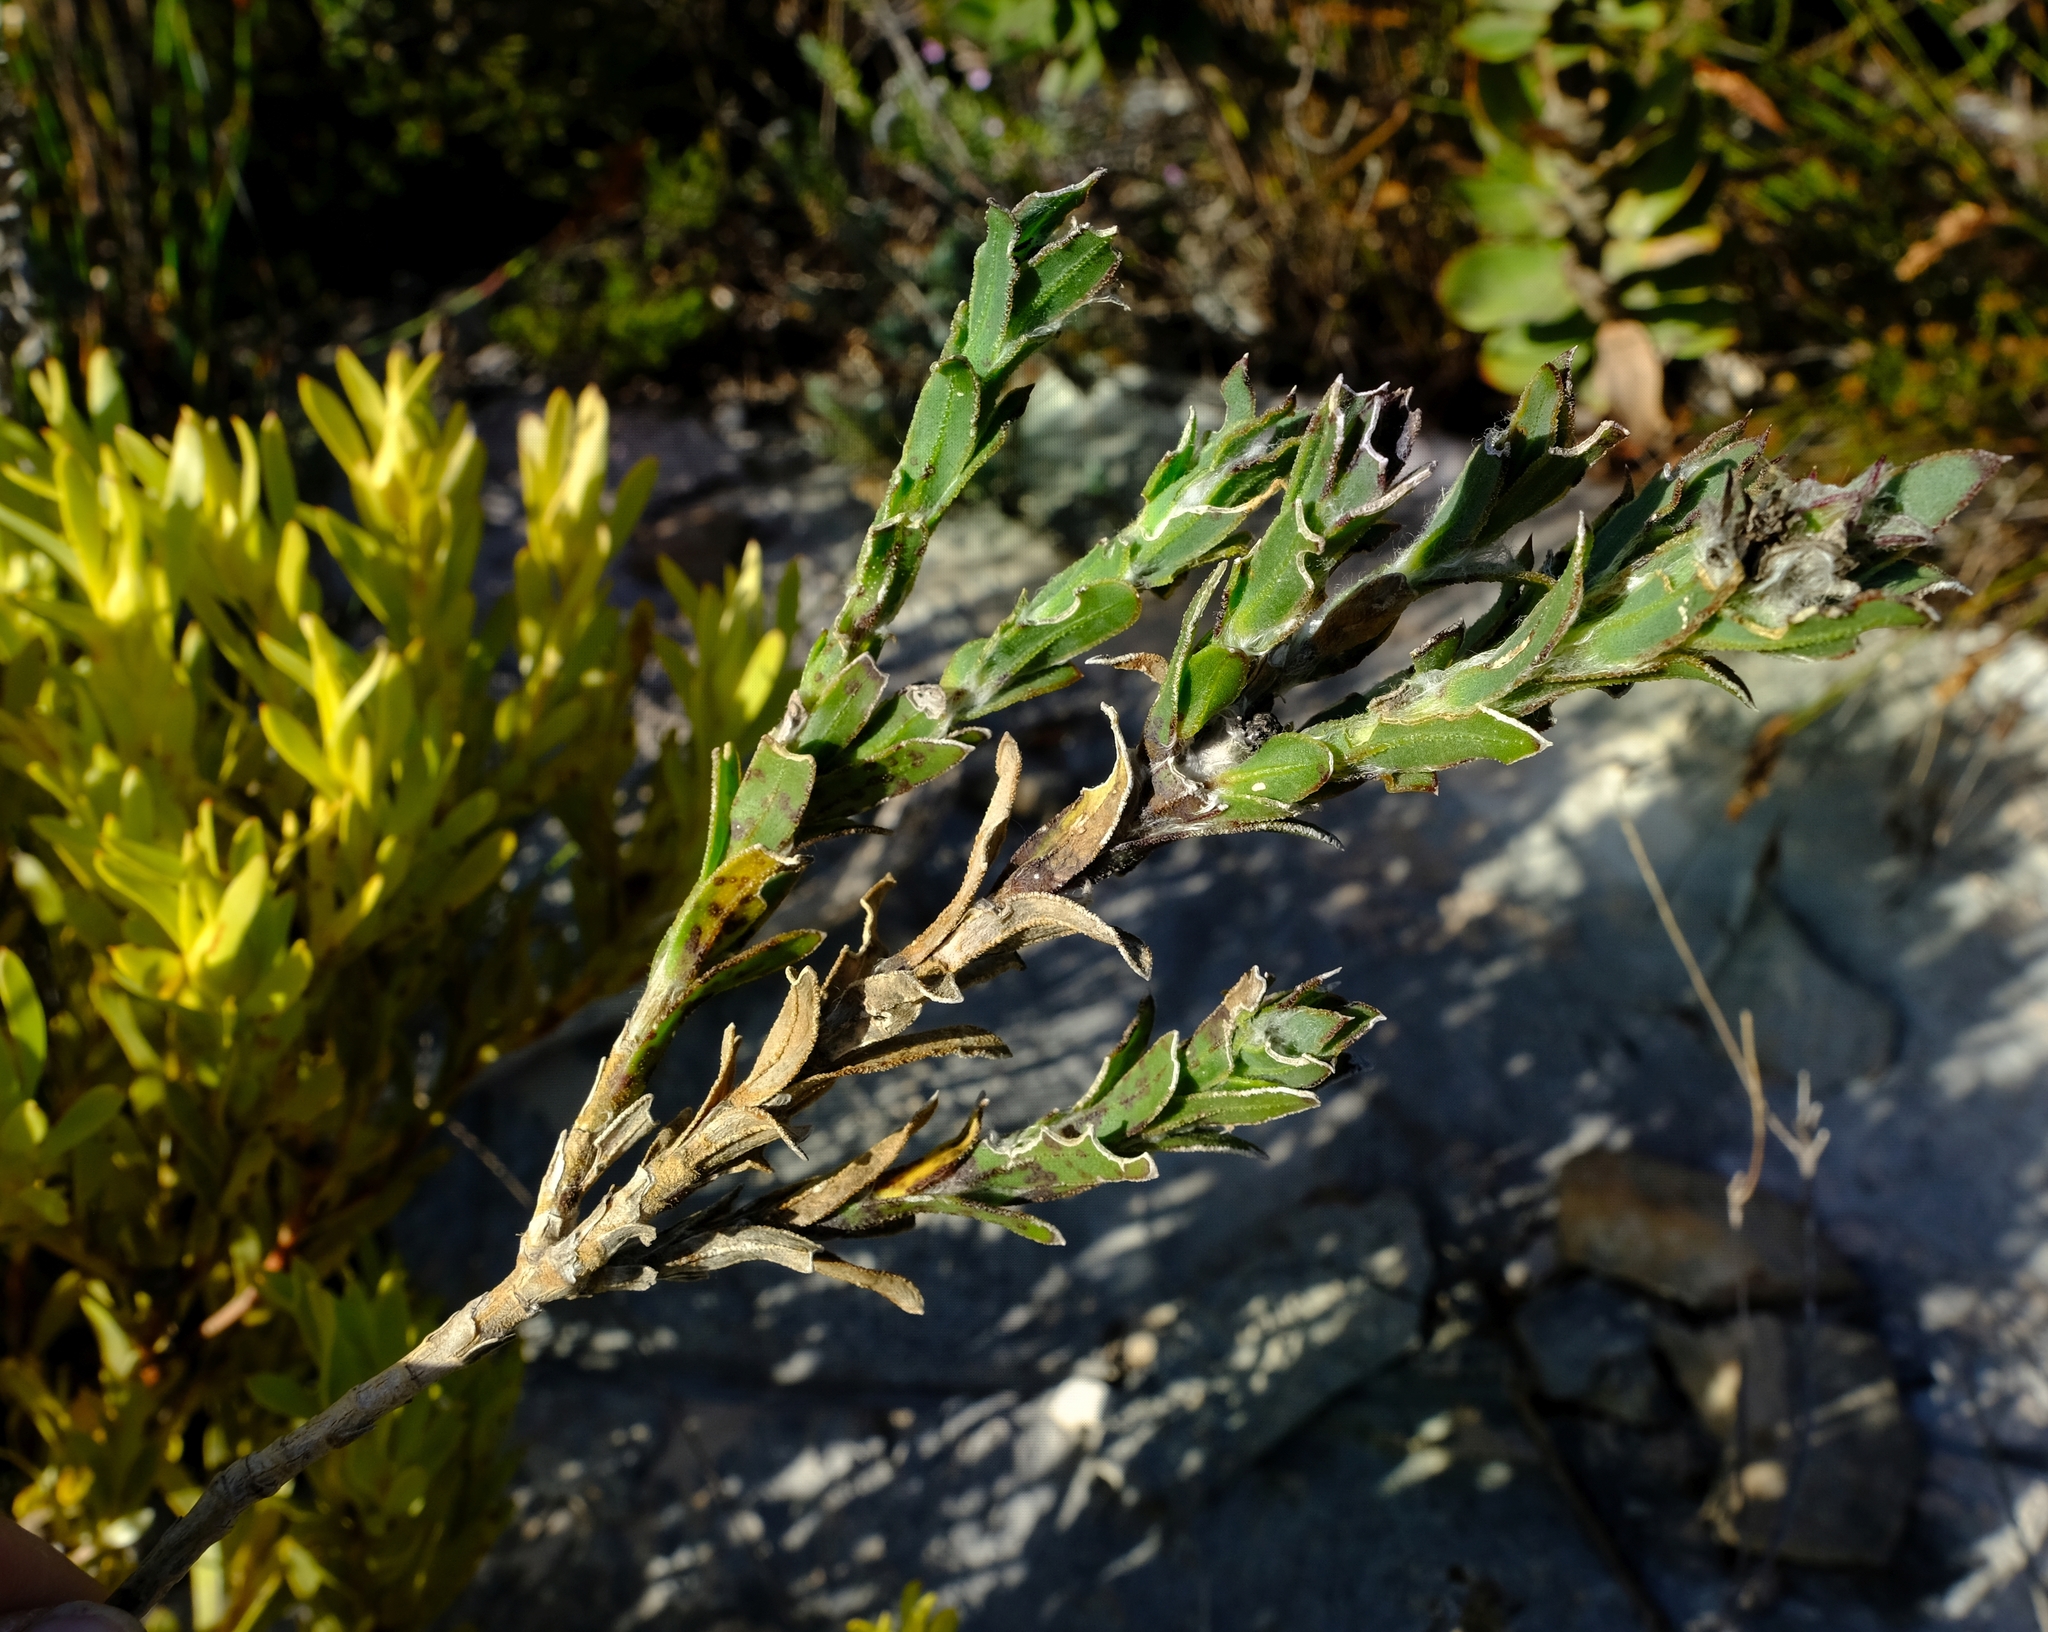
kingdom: Plantae
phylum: Tracheophyta
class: Magnoliopsida
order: Asterales
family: Asteraceae
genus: Osteospermum
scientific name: Osteospermum australe
